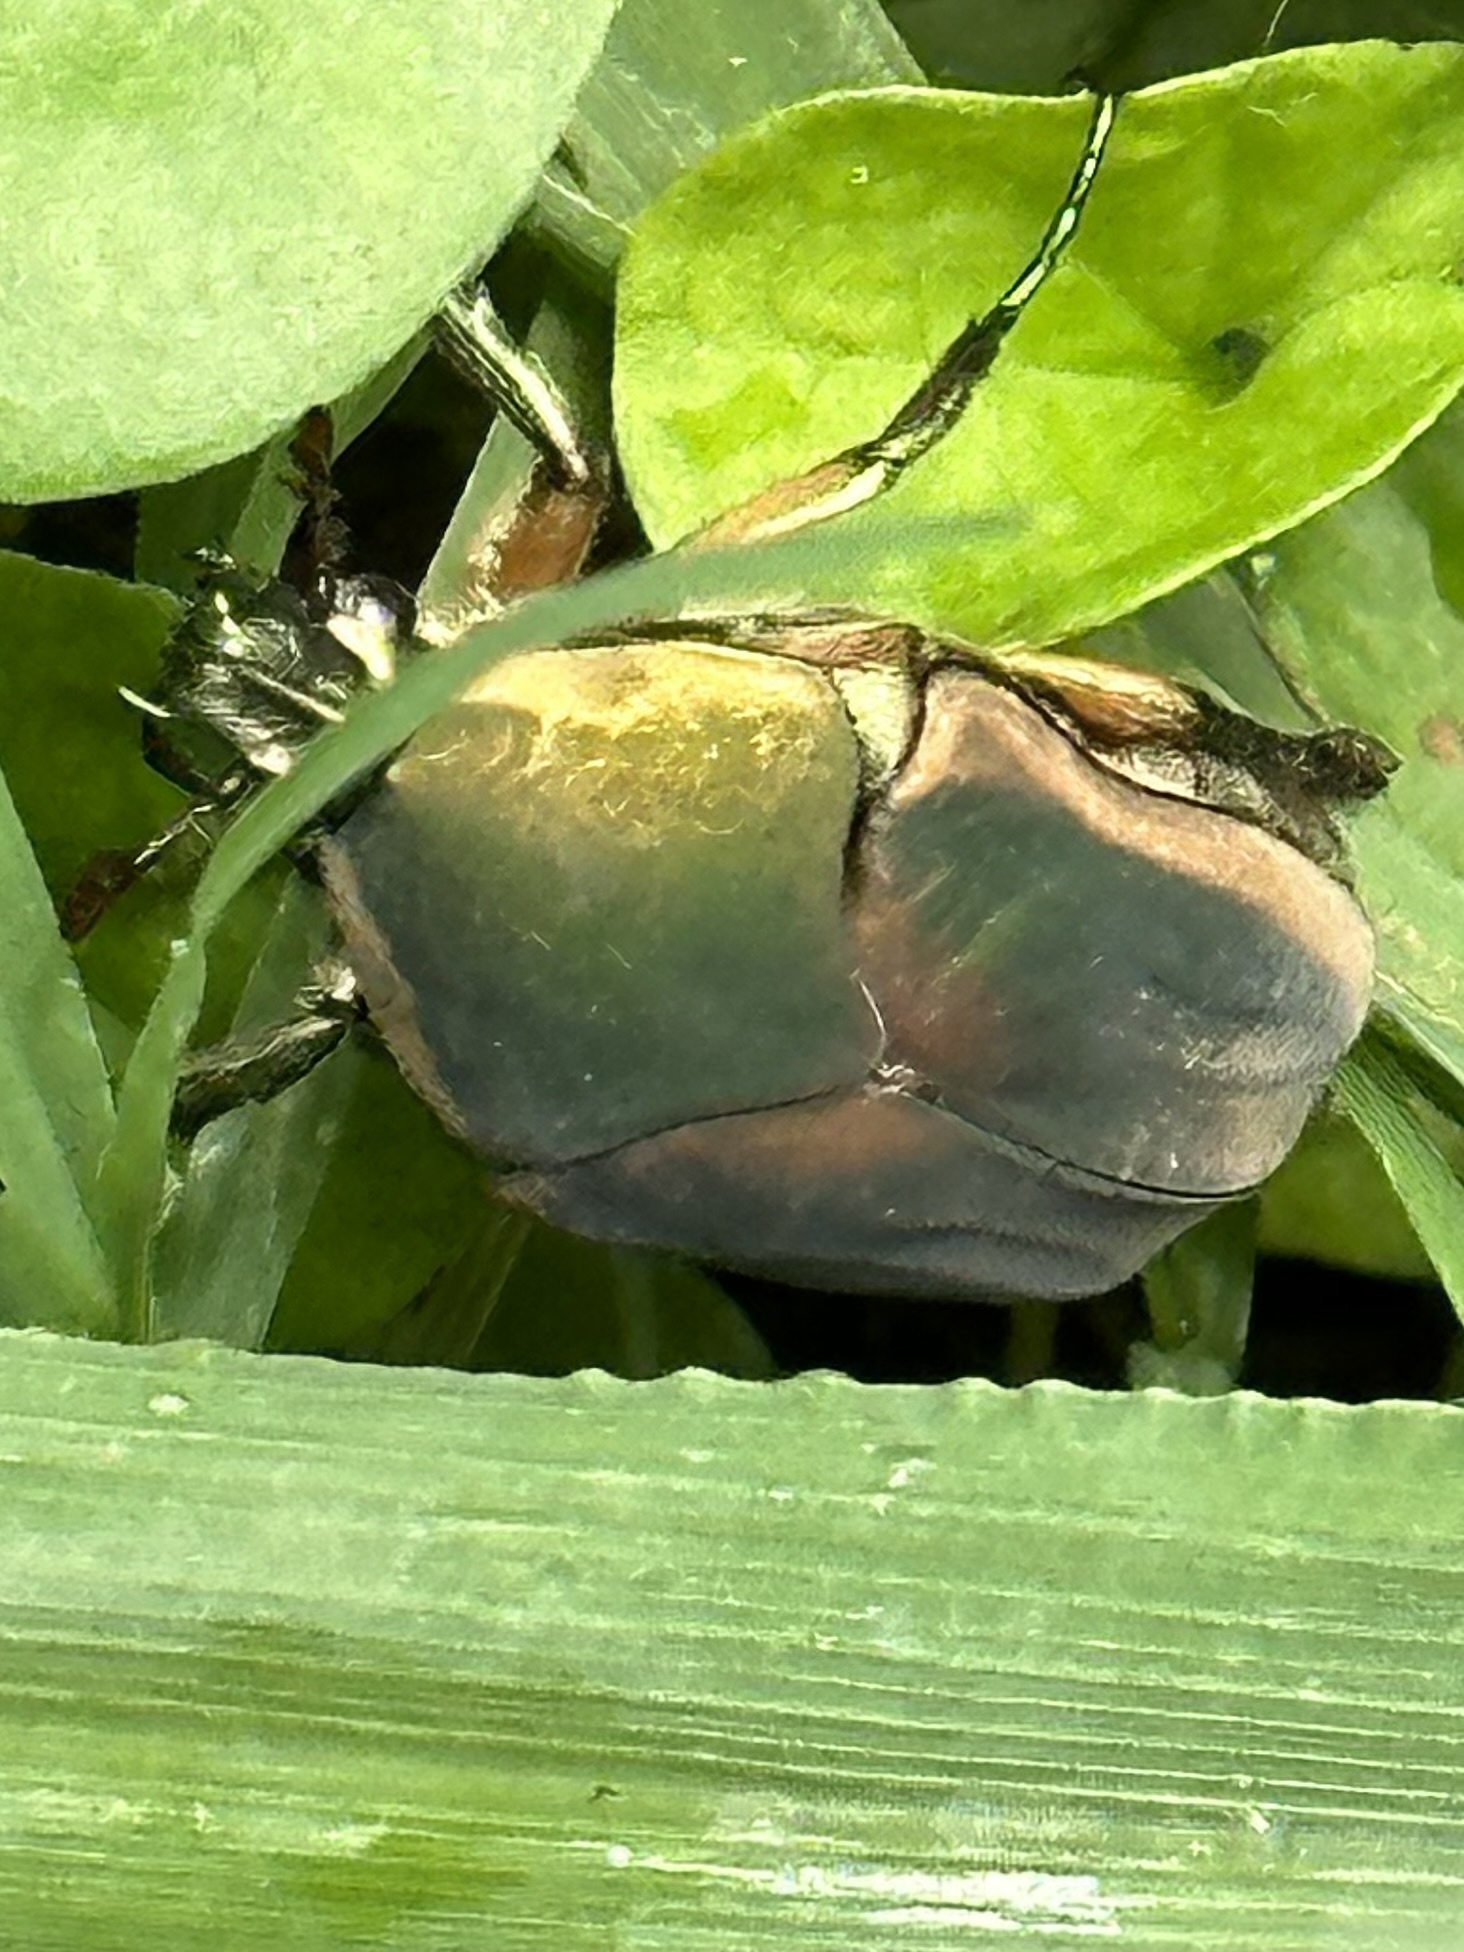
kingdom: Animalia
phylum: Arthropoda
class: Insecta
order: Coleoptera
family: Scarabaeidae
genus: Cotinis
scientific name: Cotinis nitida
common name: Common green june beetle
